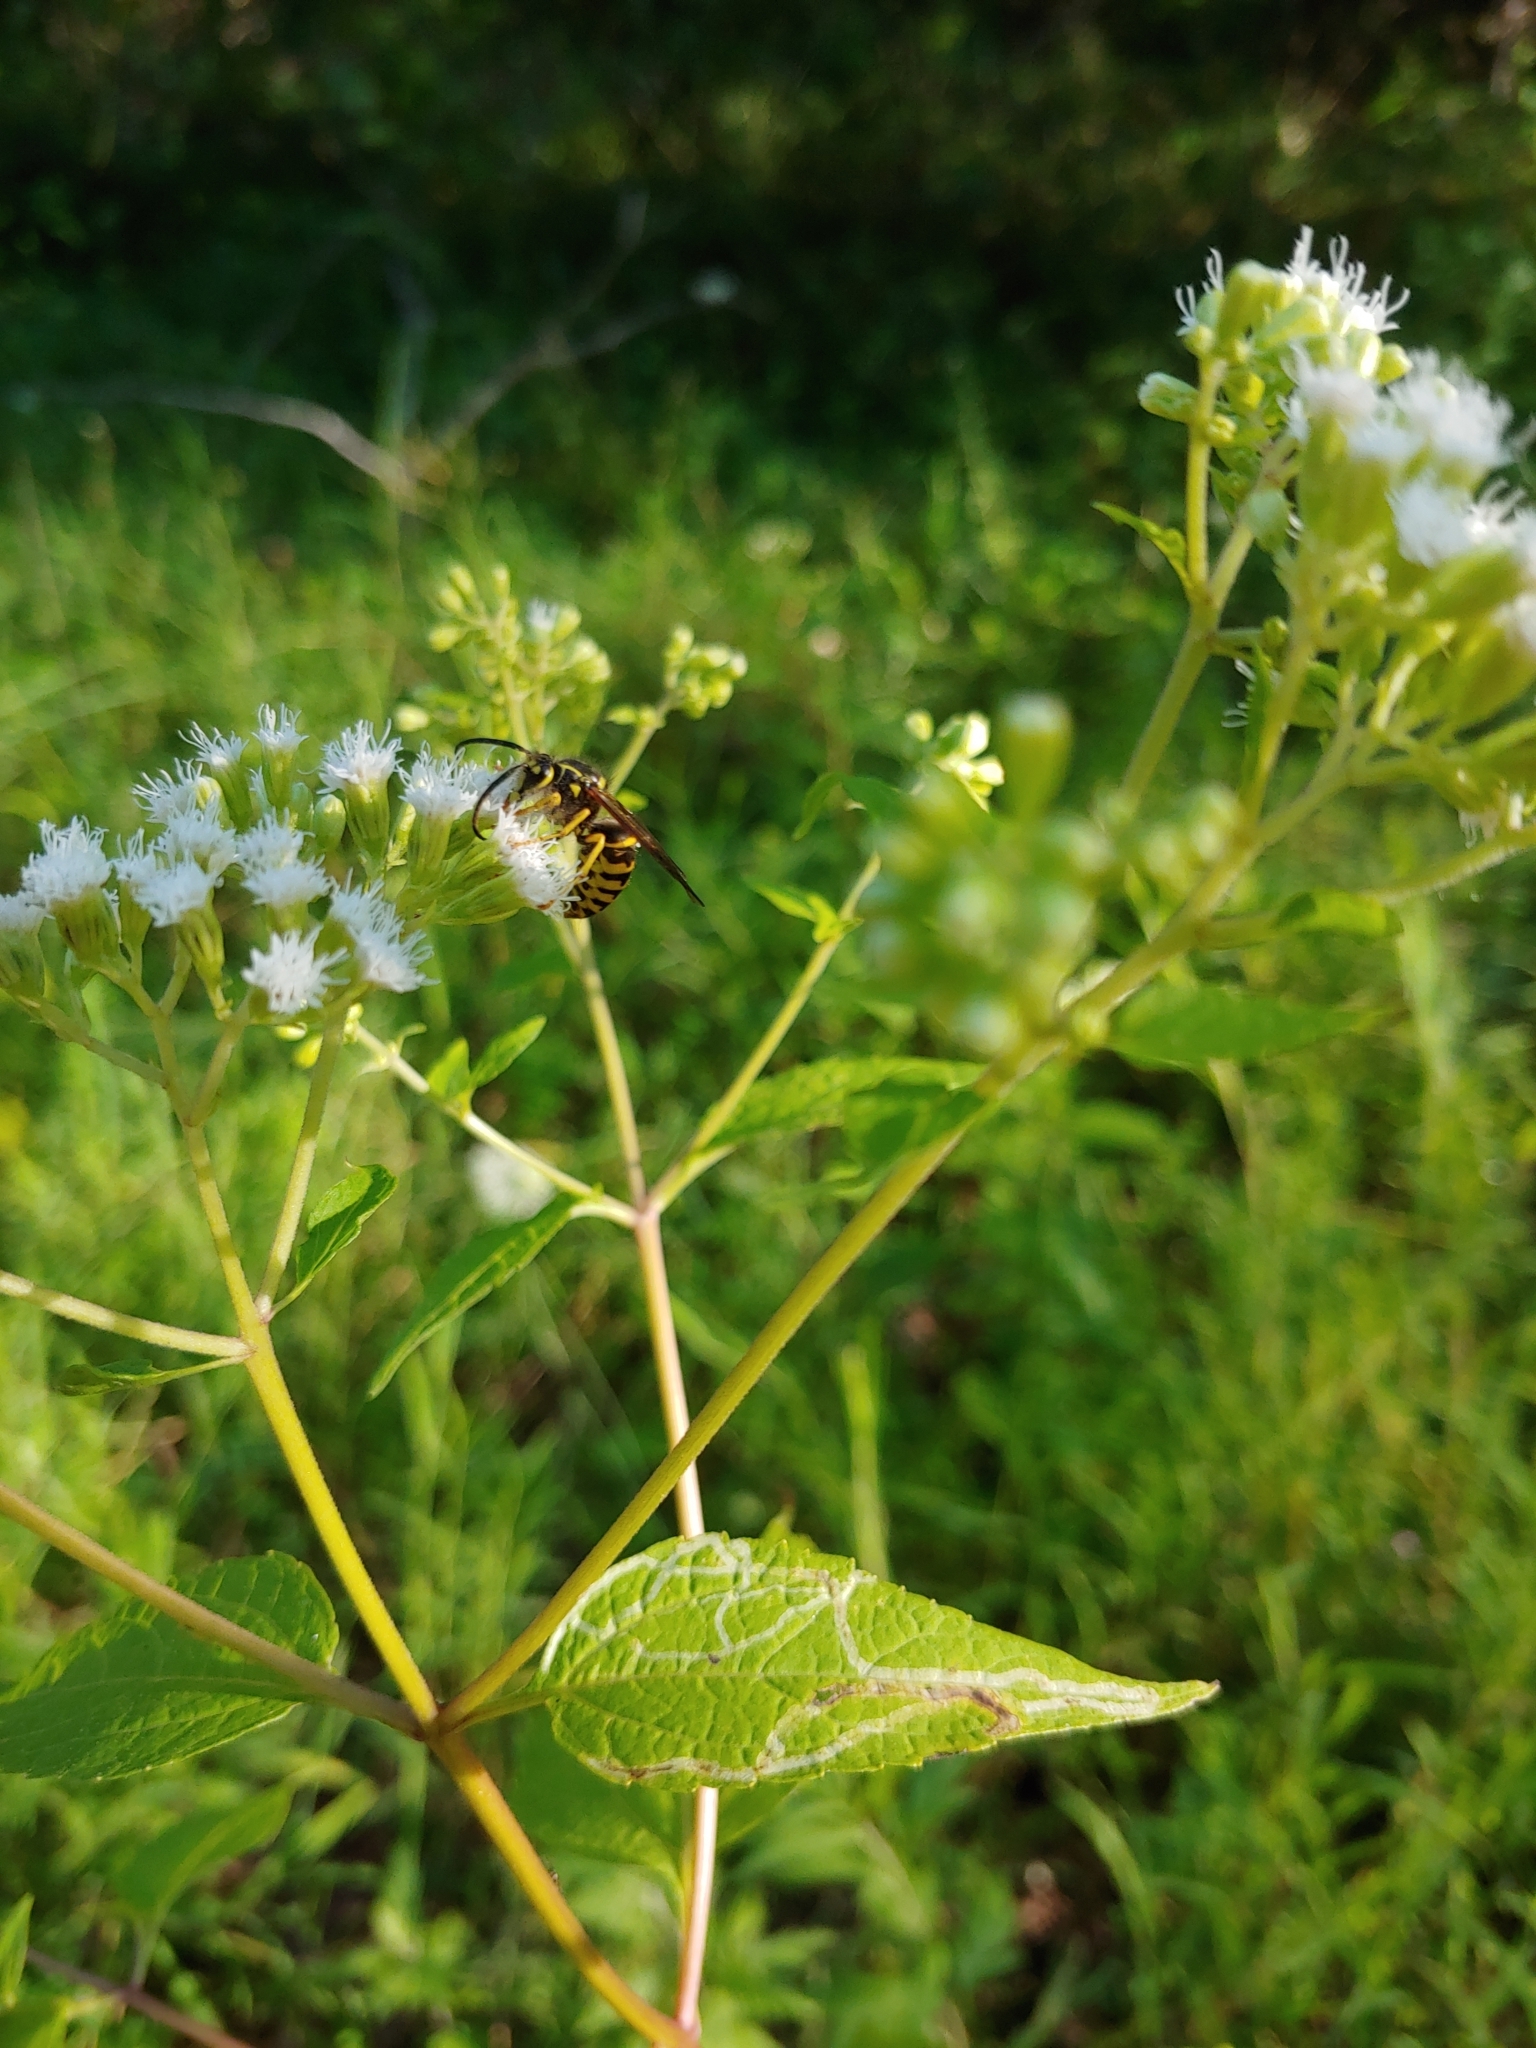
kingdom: Animalia
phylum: Arthropoda
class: Insecta
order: Hymenoptera
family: Vespidae
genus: Dolichovespula
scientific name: Dolichovespula arenaria
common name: Aerial yellowjacket
